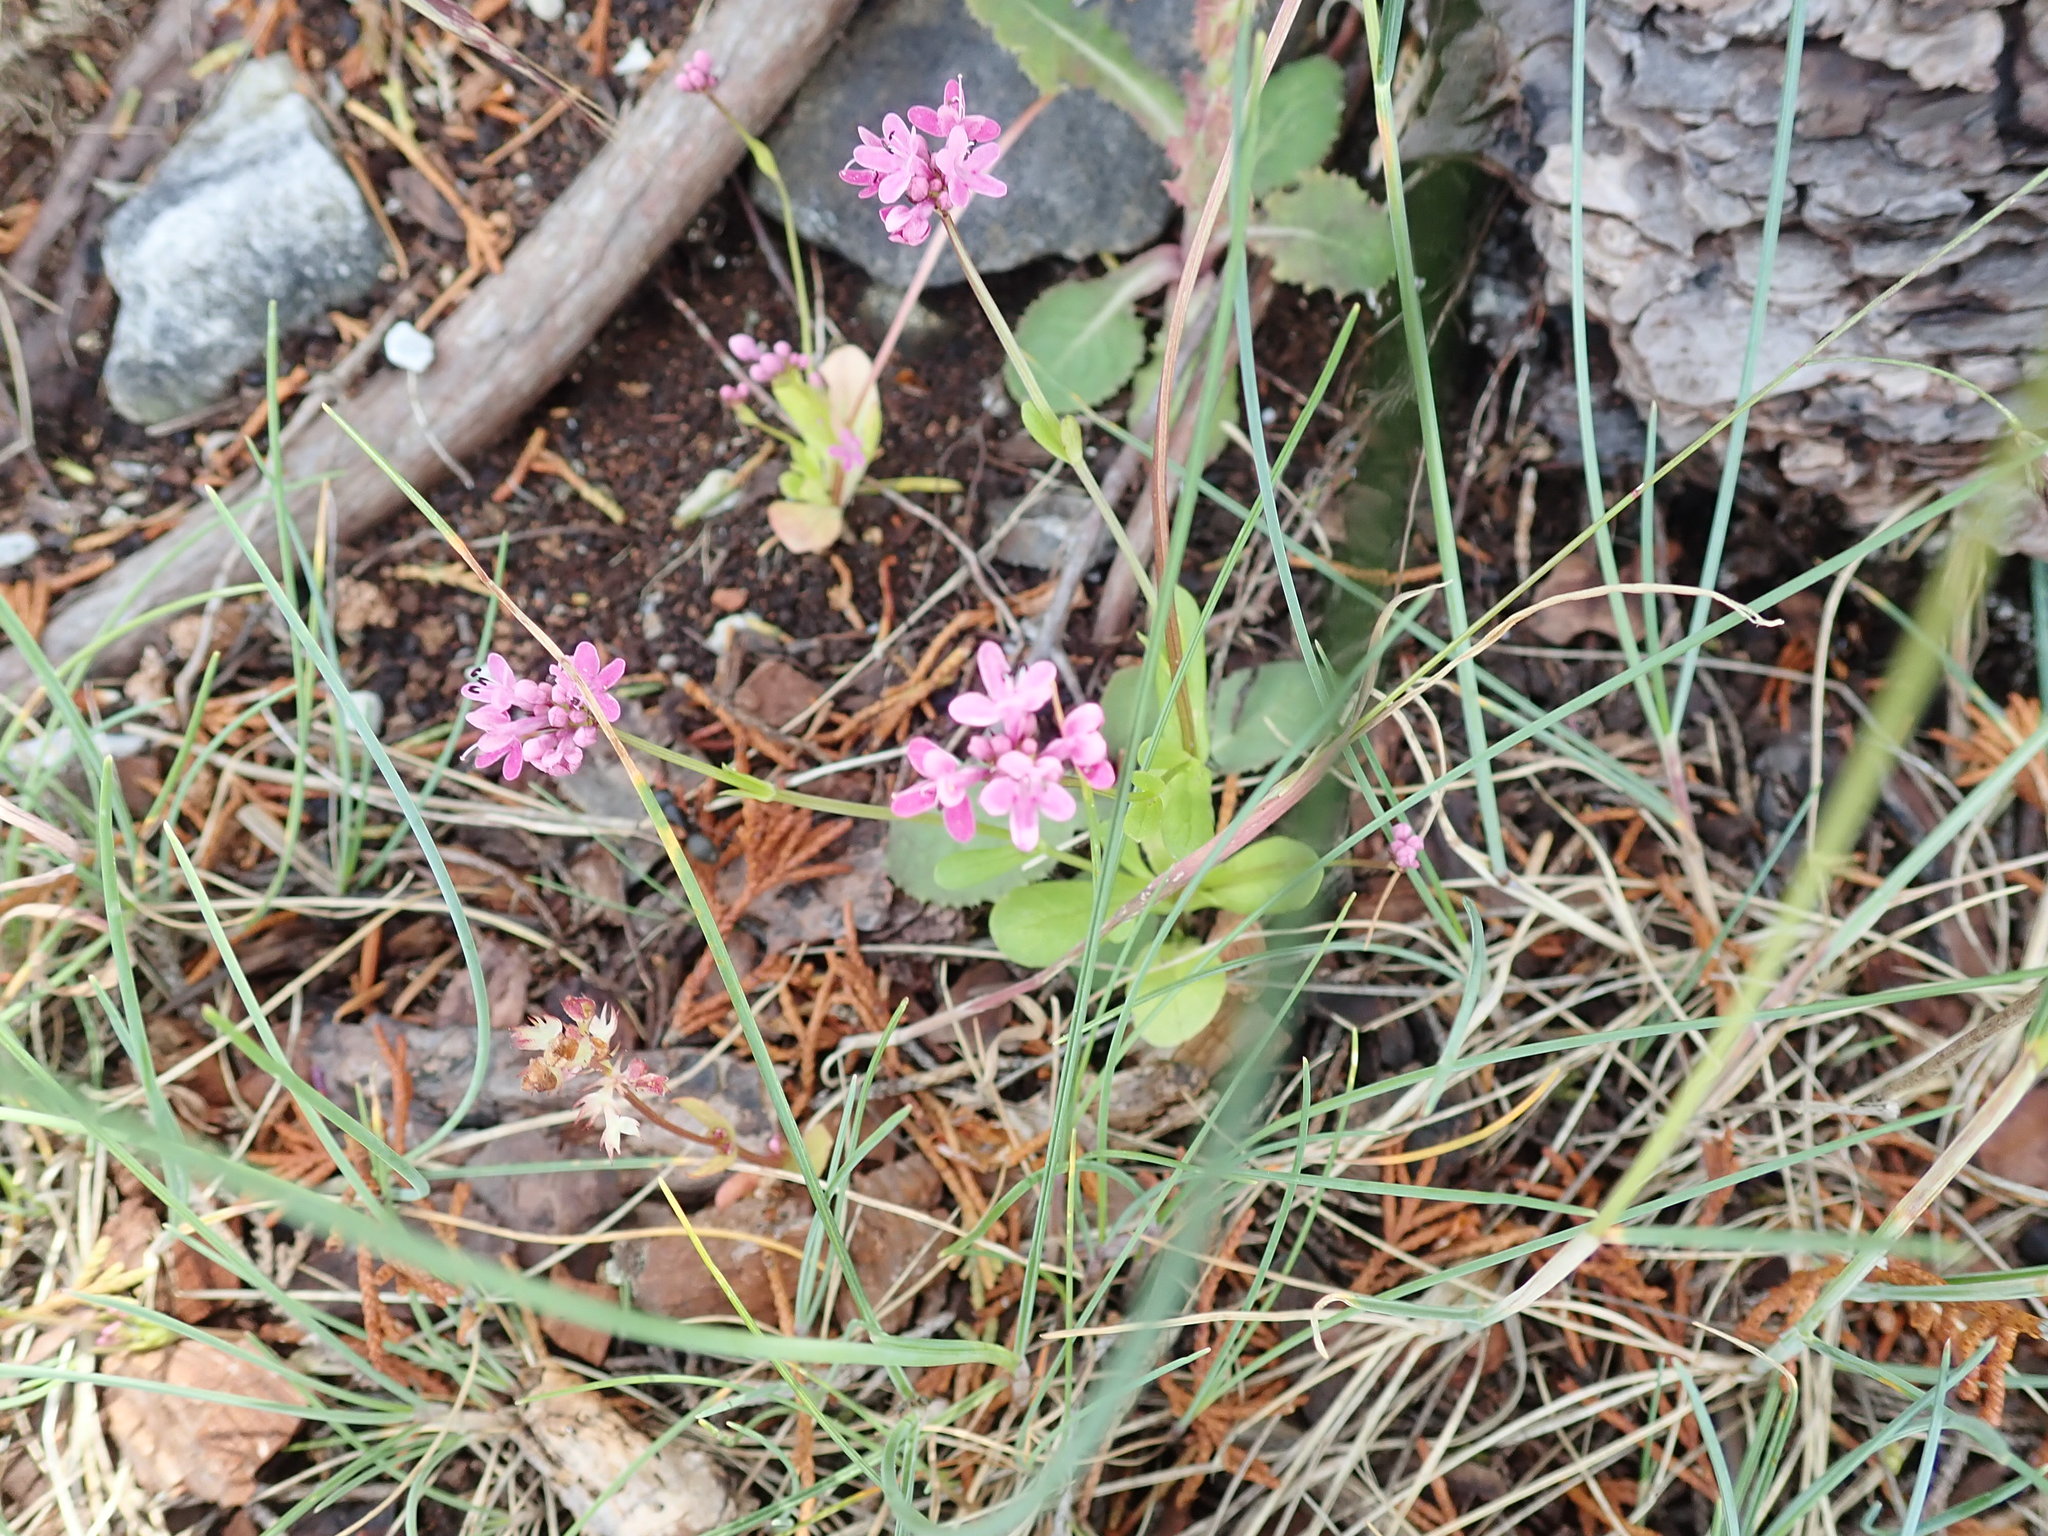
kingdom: Plantae
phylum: Tracheophyta
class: Magnoliopsida
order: Dipsacales
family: Caprifoliaceae
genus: Plectritis
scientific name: Plectritis congesta
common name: Pink plectritis
